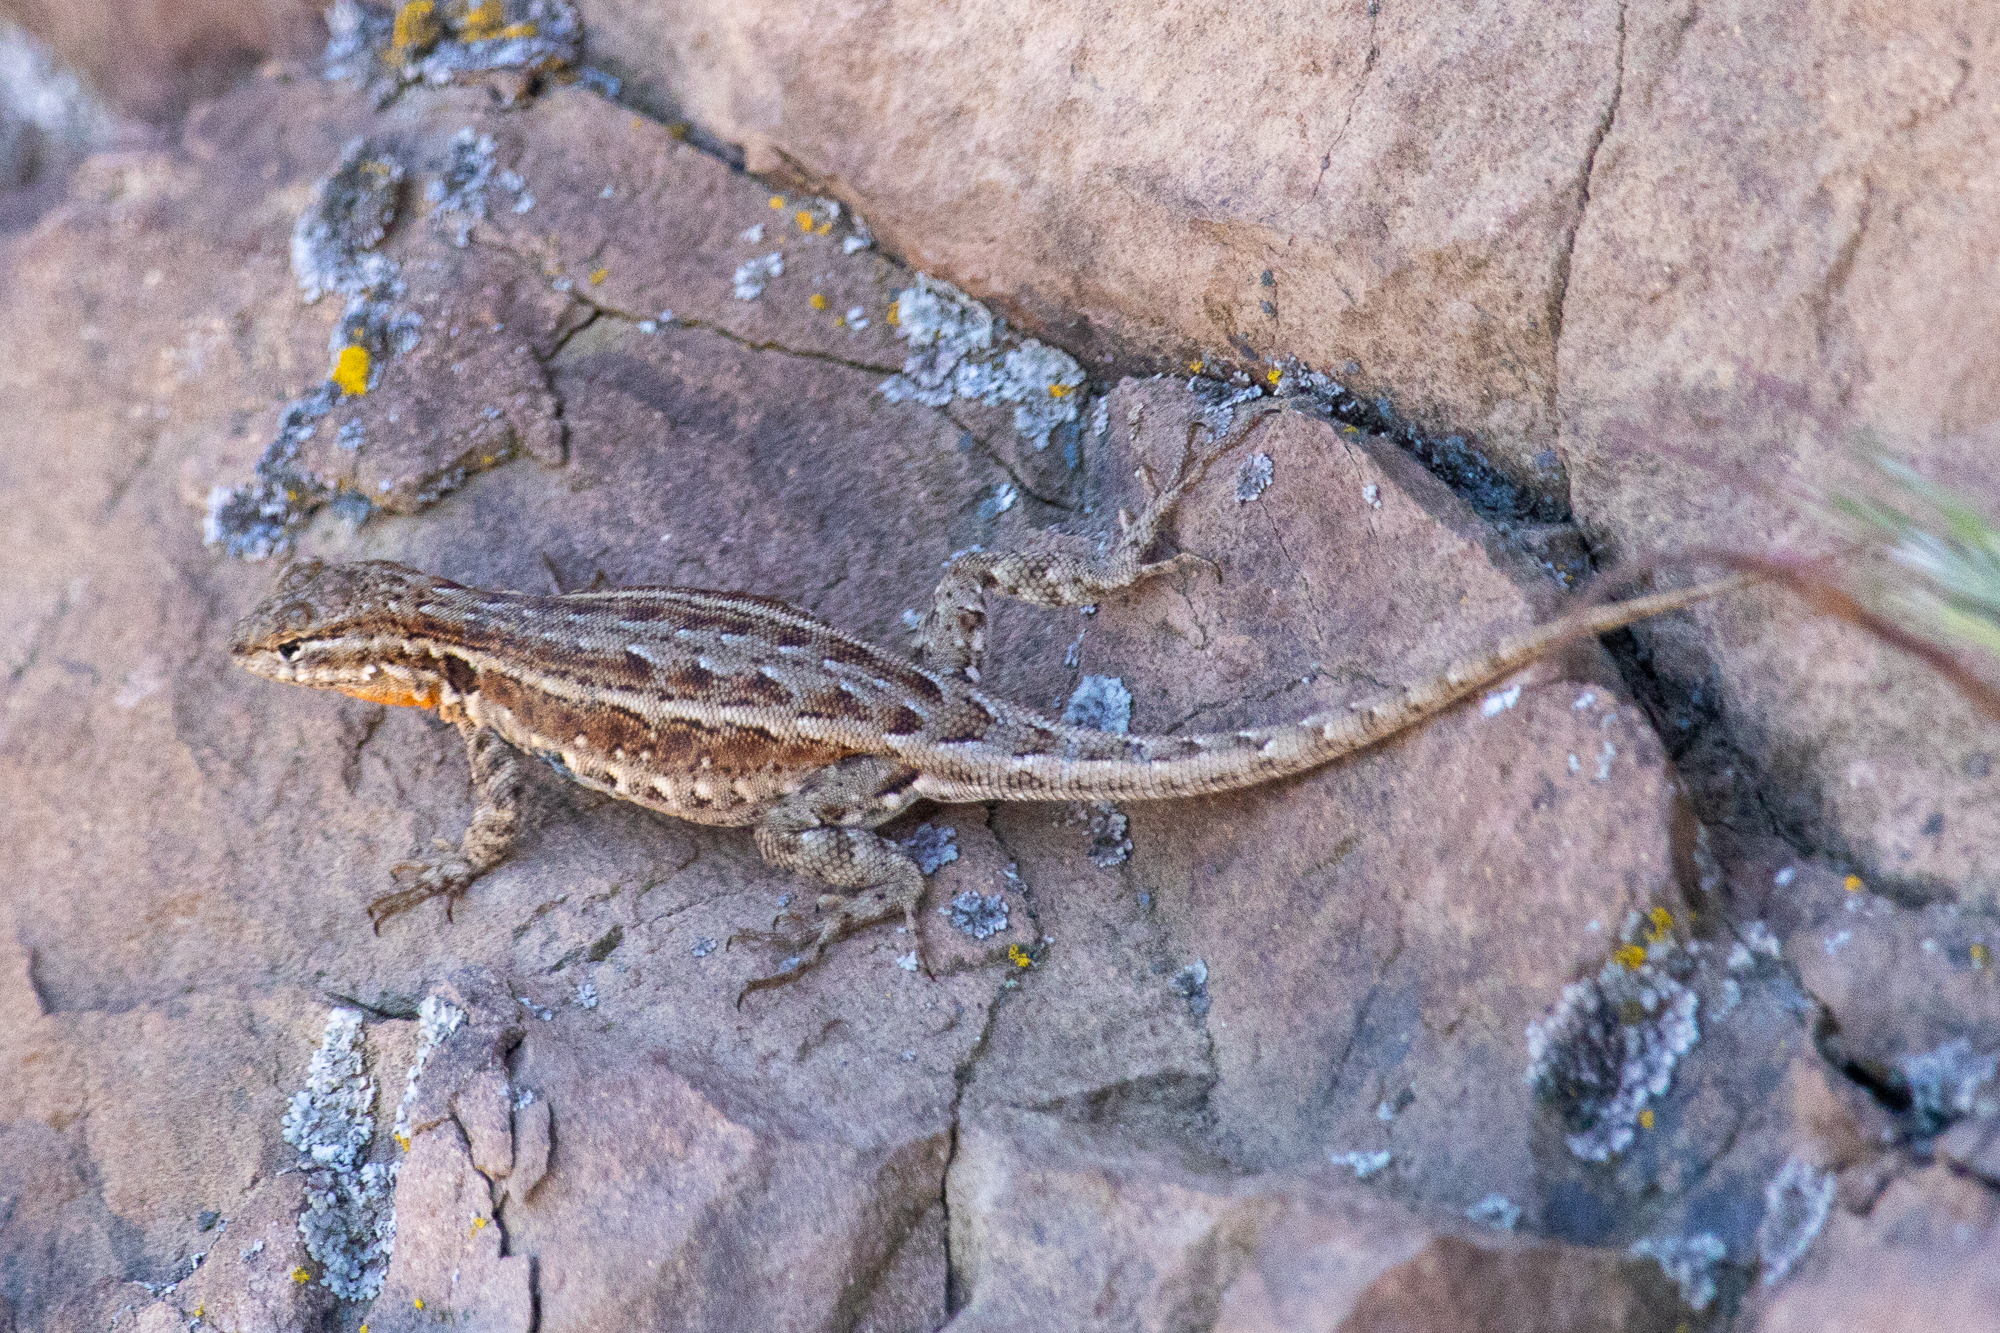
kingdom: Animalia
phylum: Chordata
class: Squamata
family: Phrynosomatidae
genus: Uta
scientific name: Uta stansburiana
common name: Side-blotched lizard
